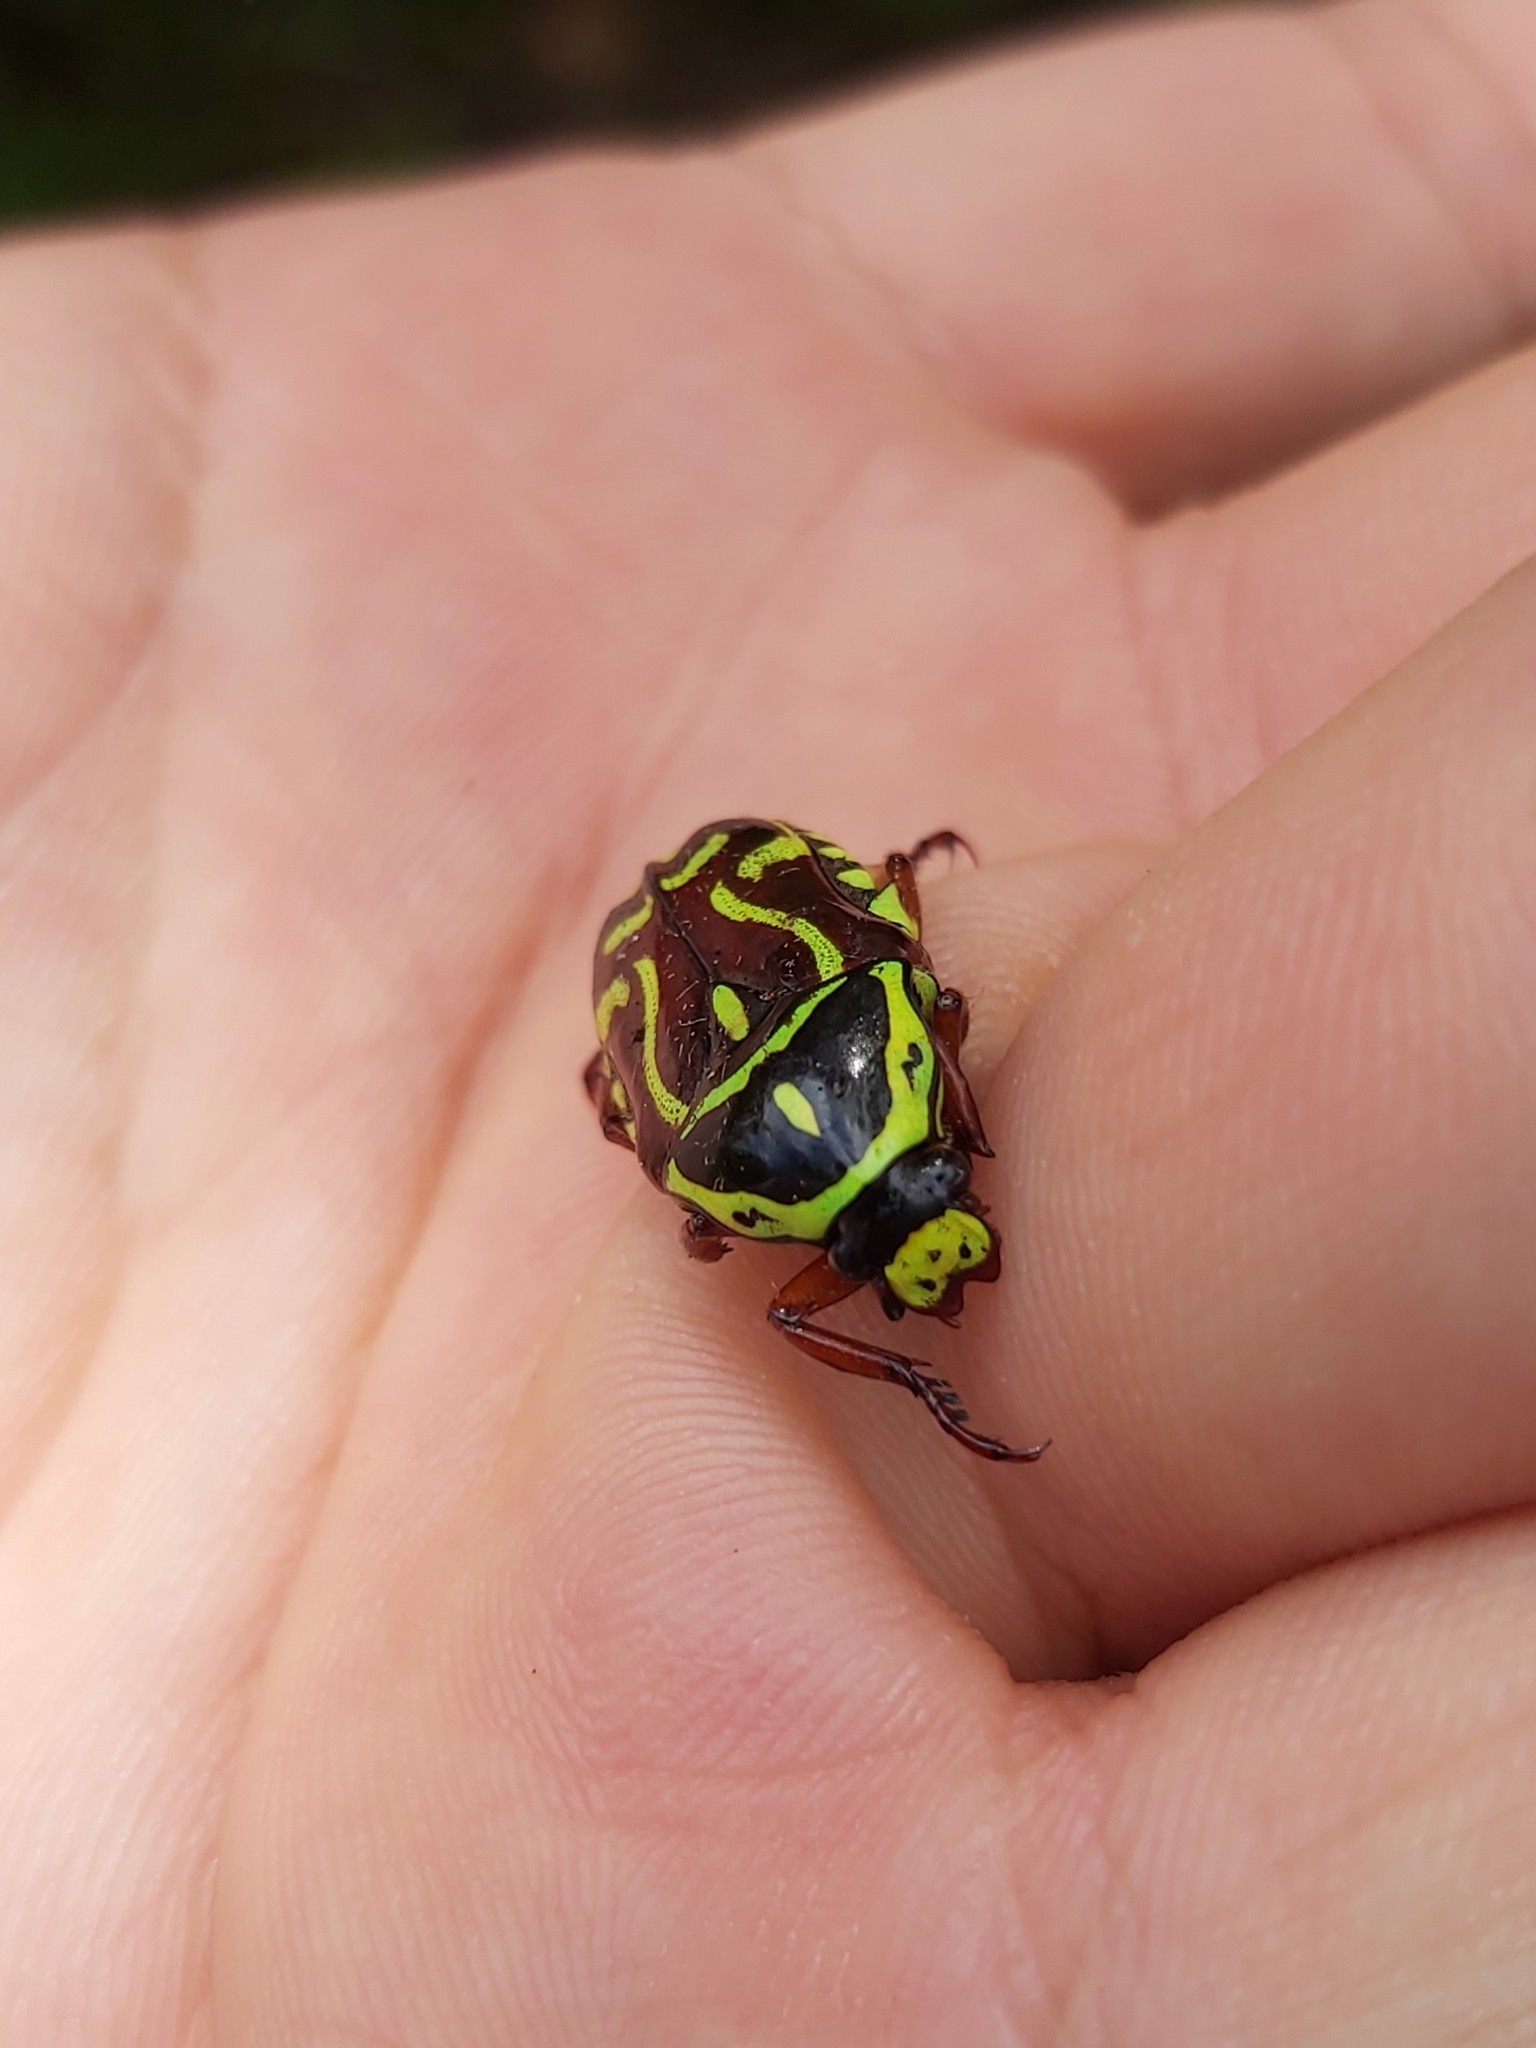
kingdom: Animalia
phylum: Arthropoda
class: Insecta
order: Coleoptera
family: Scarabaeidae
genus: Eupoecila
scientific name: Eupoecila australasiae
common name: Fiddler beetle
